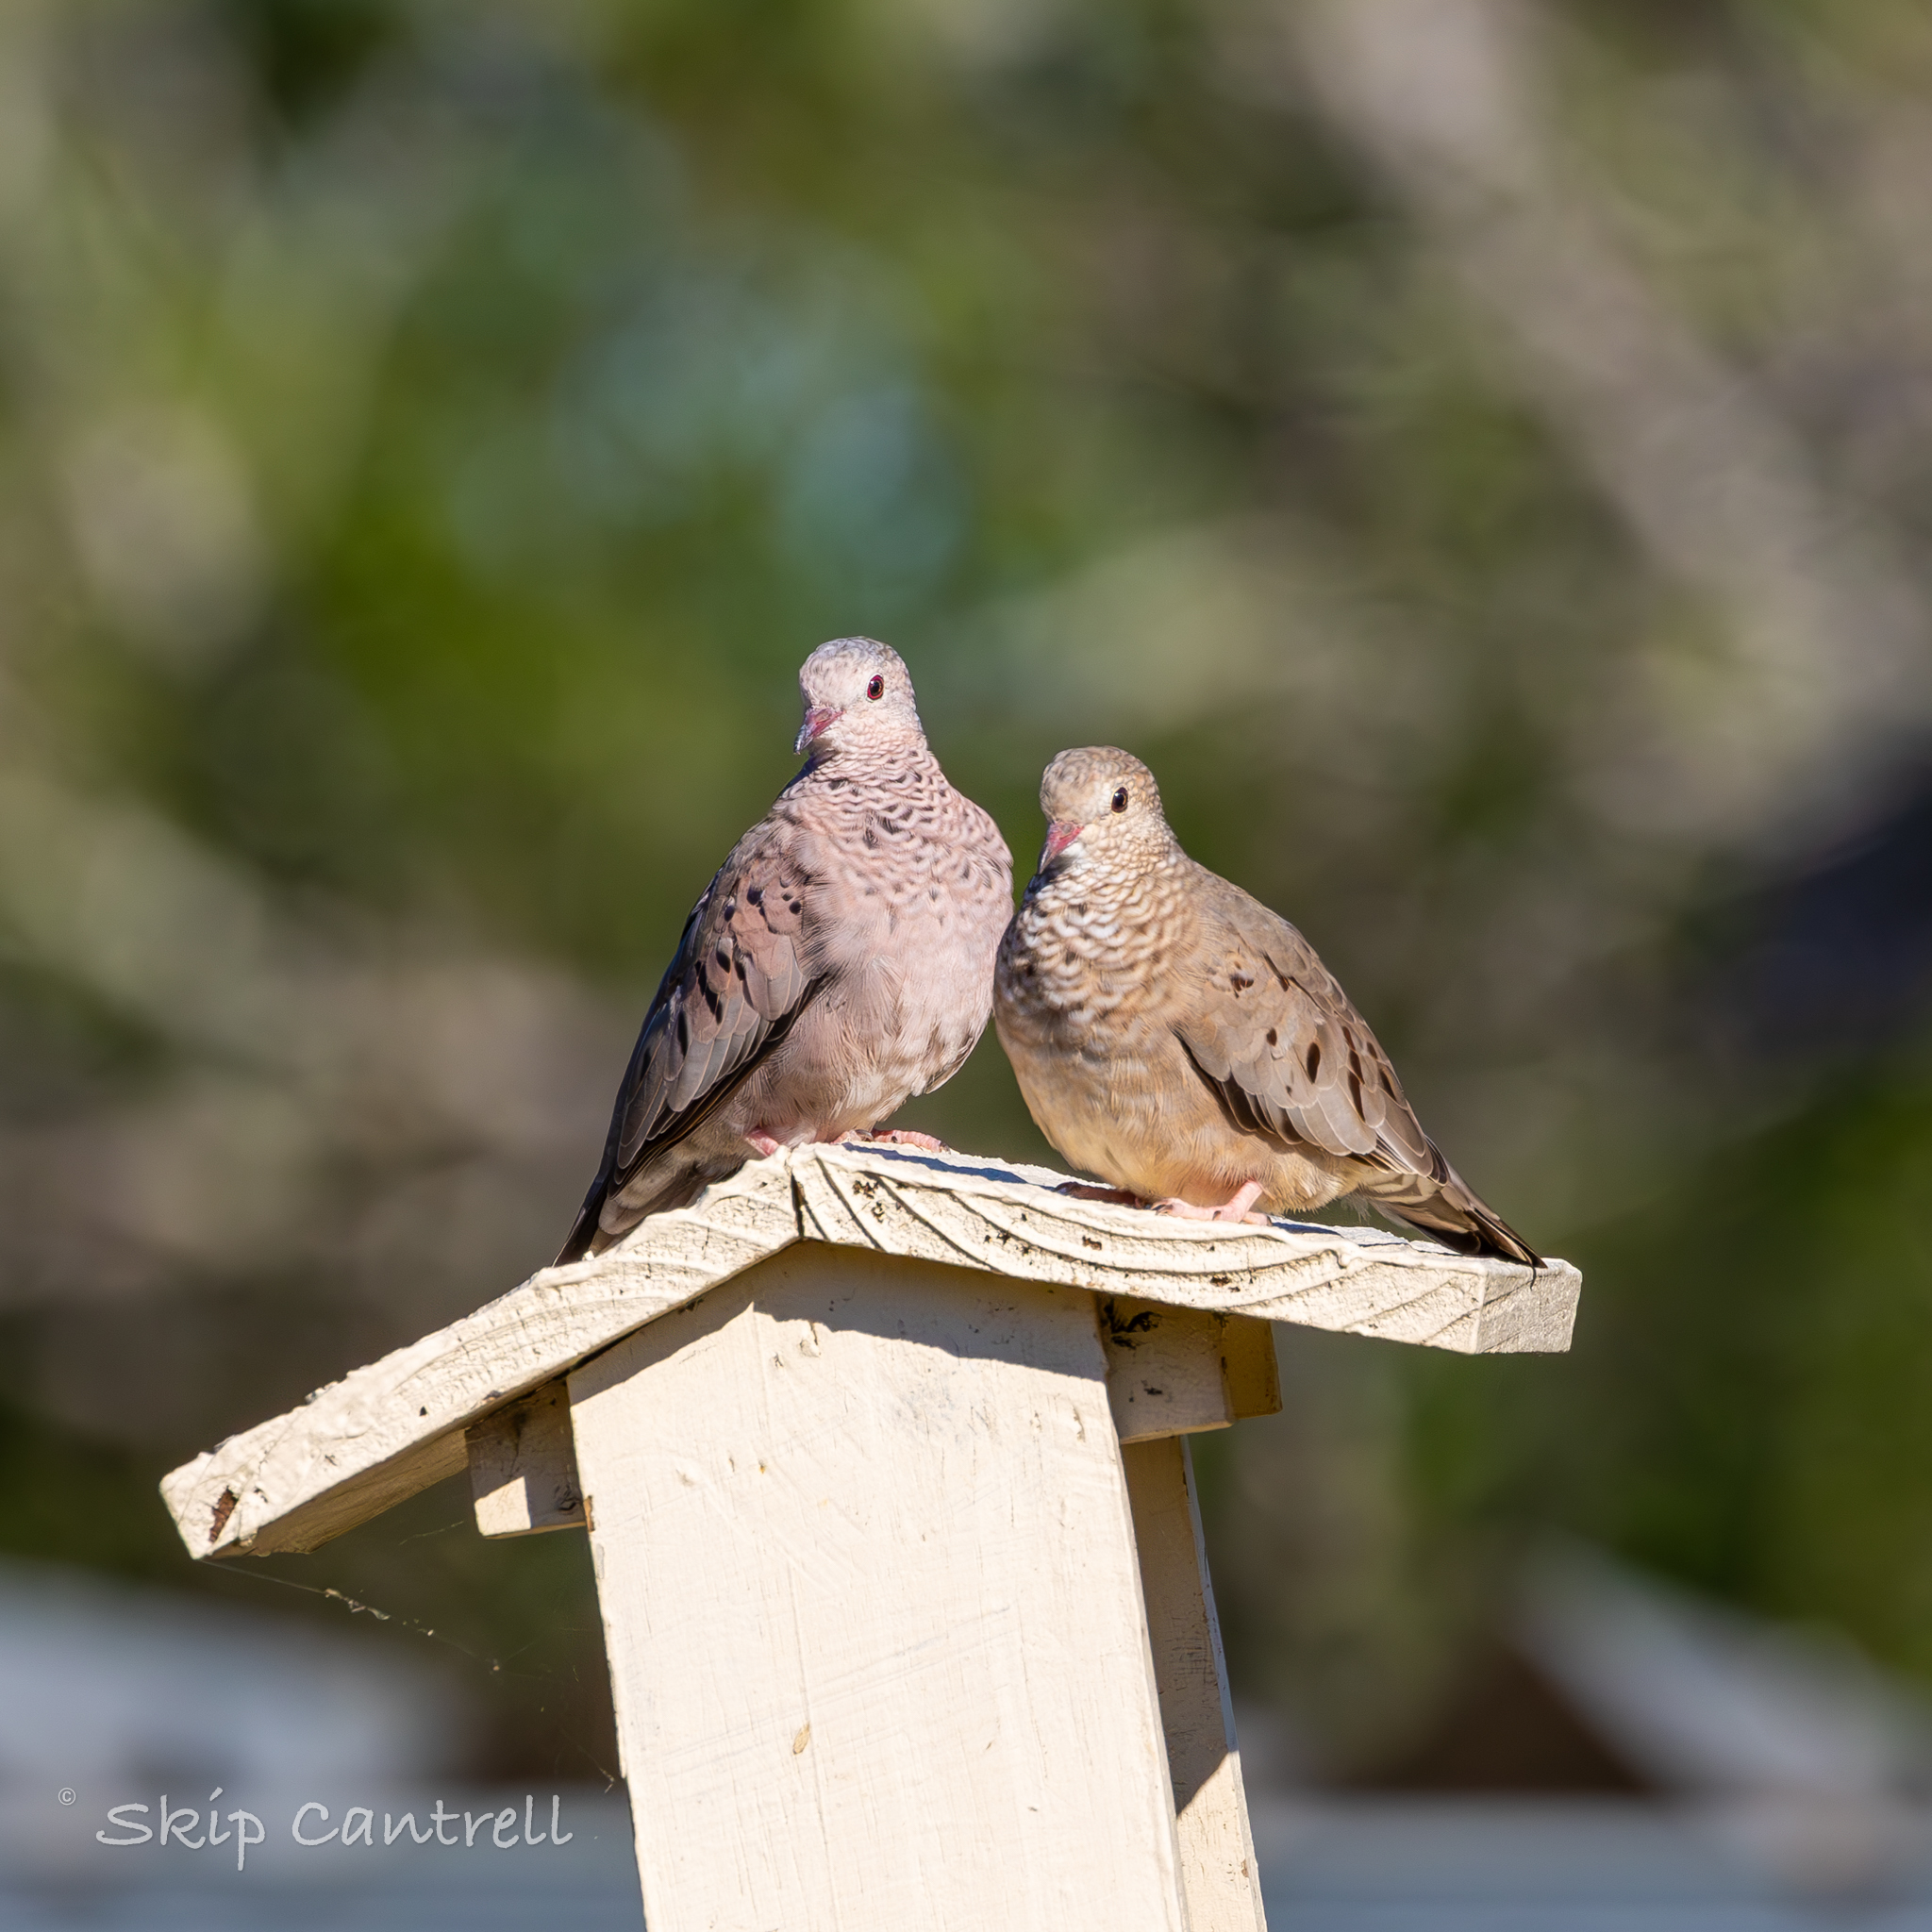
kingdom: Animalia
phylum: Chordata
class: Aves
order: Columbiformes
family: Columbidae
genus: Columbina
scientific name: Columbina passerina
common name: Common ground-dove
